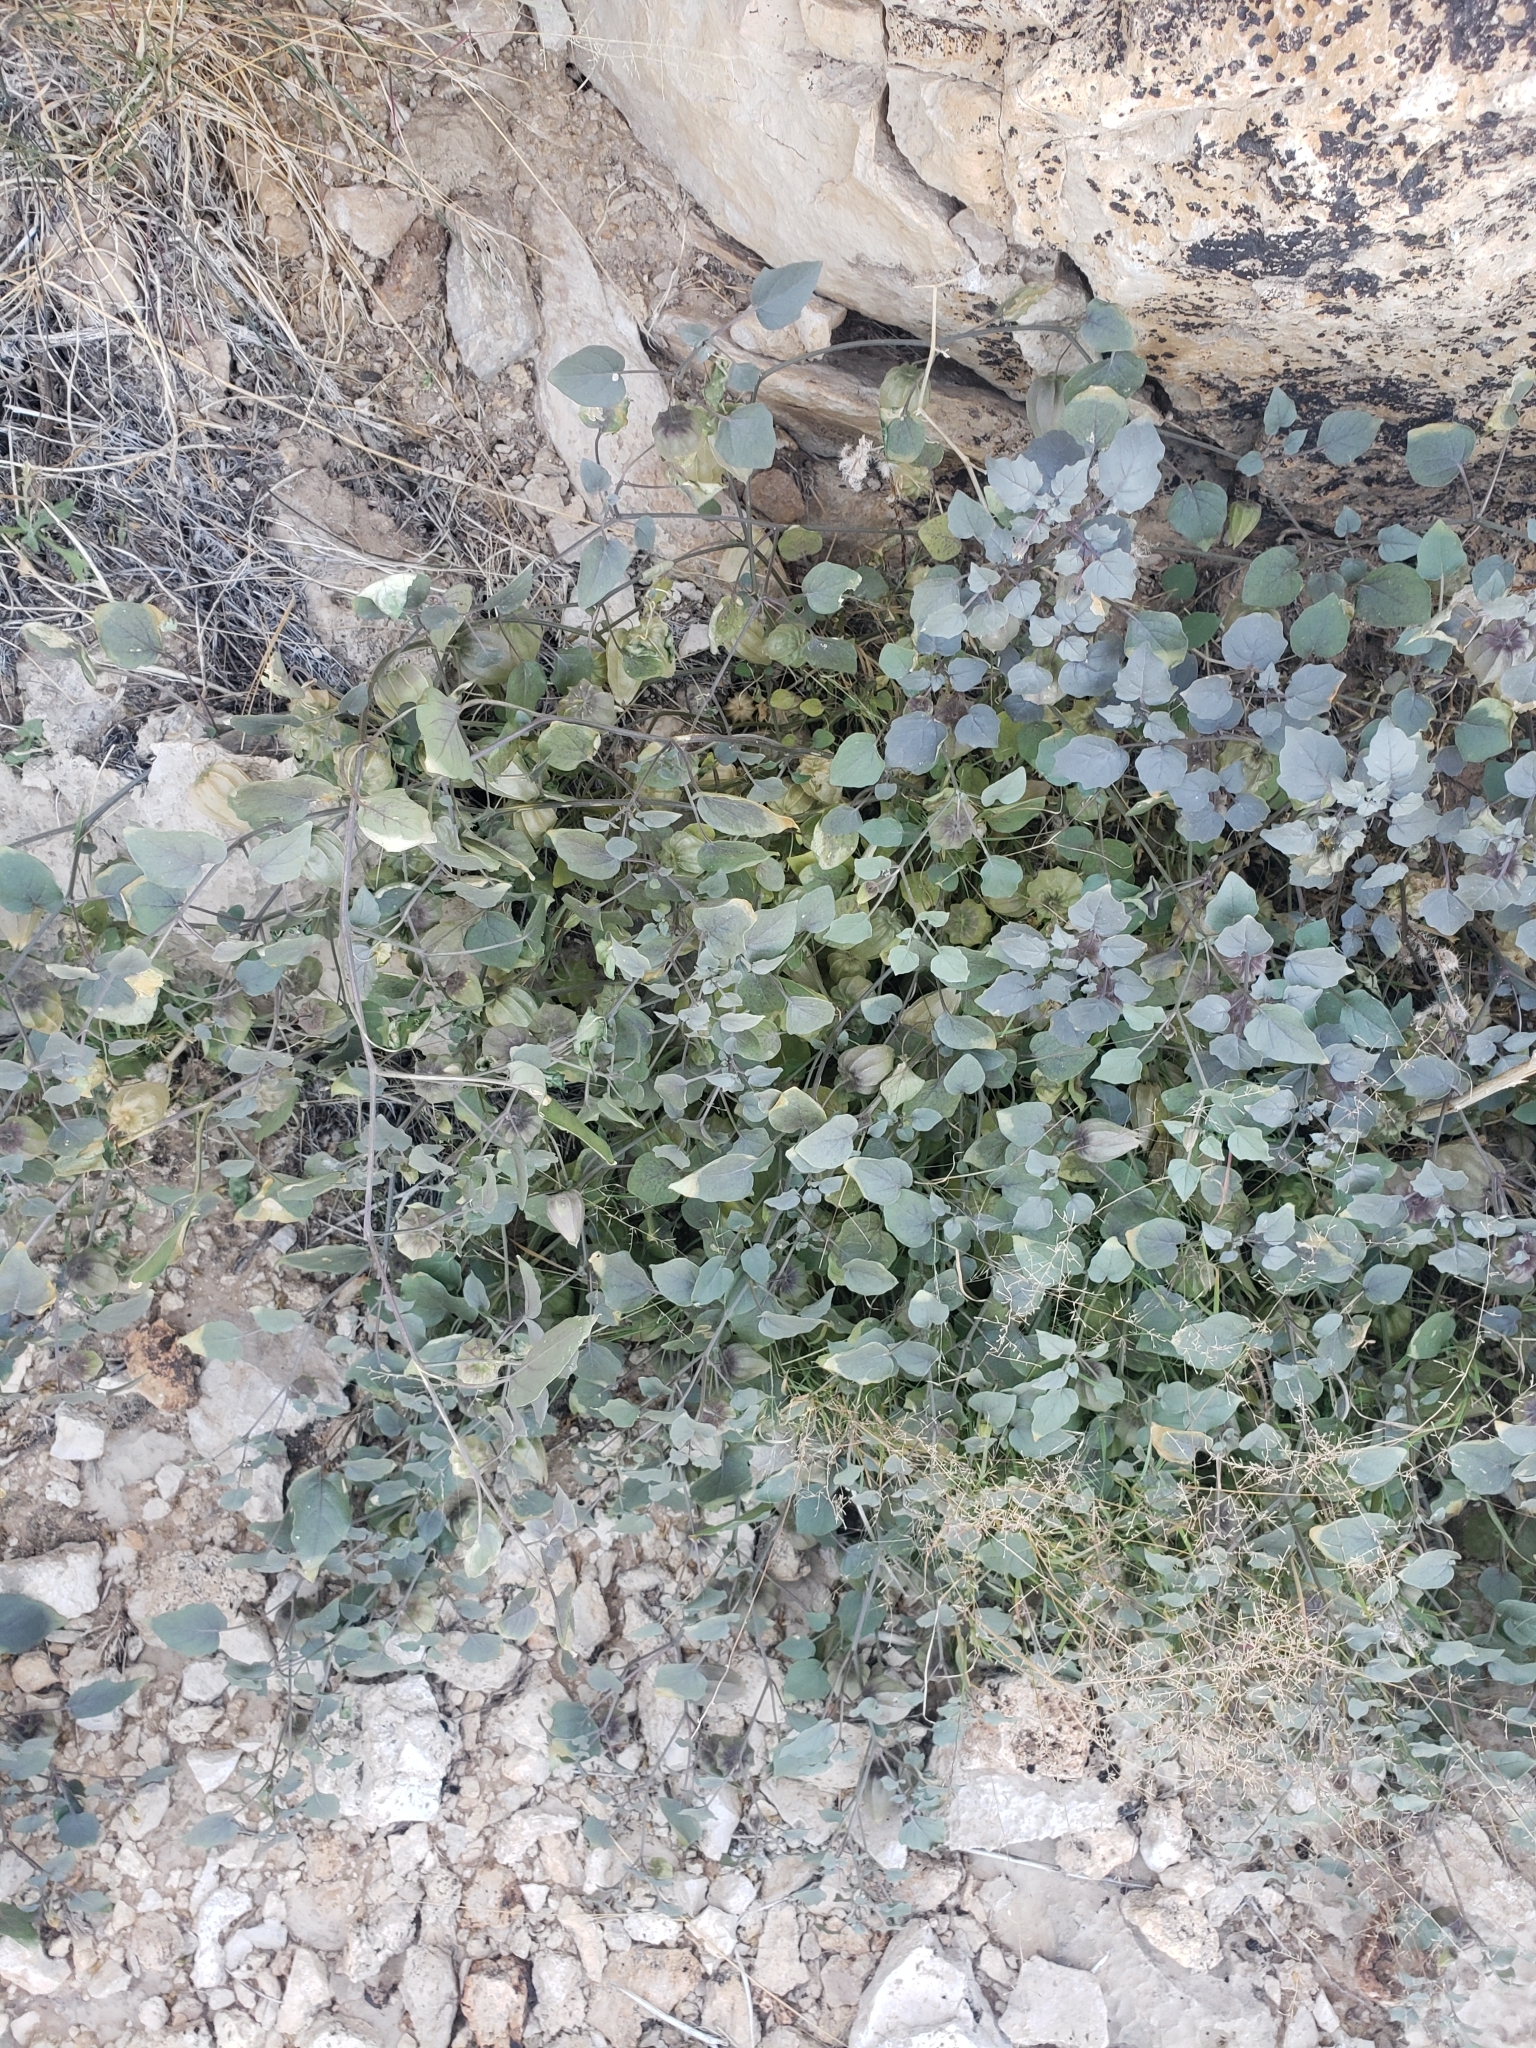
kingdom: Plantae
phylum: Tracheophyta
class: Magnoliopsida
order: Solanales
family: Solanaceae
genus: Physalis
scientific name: Physalis crassifolia
